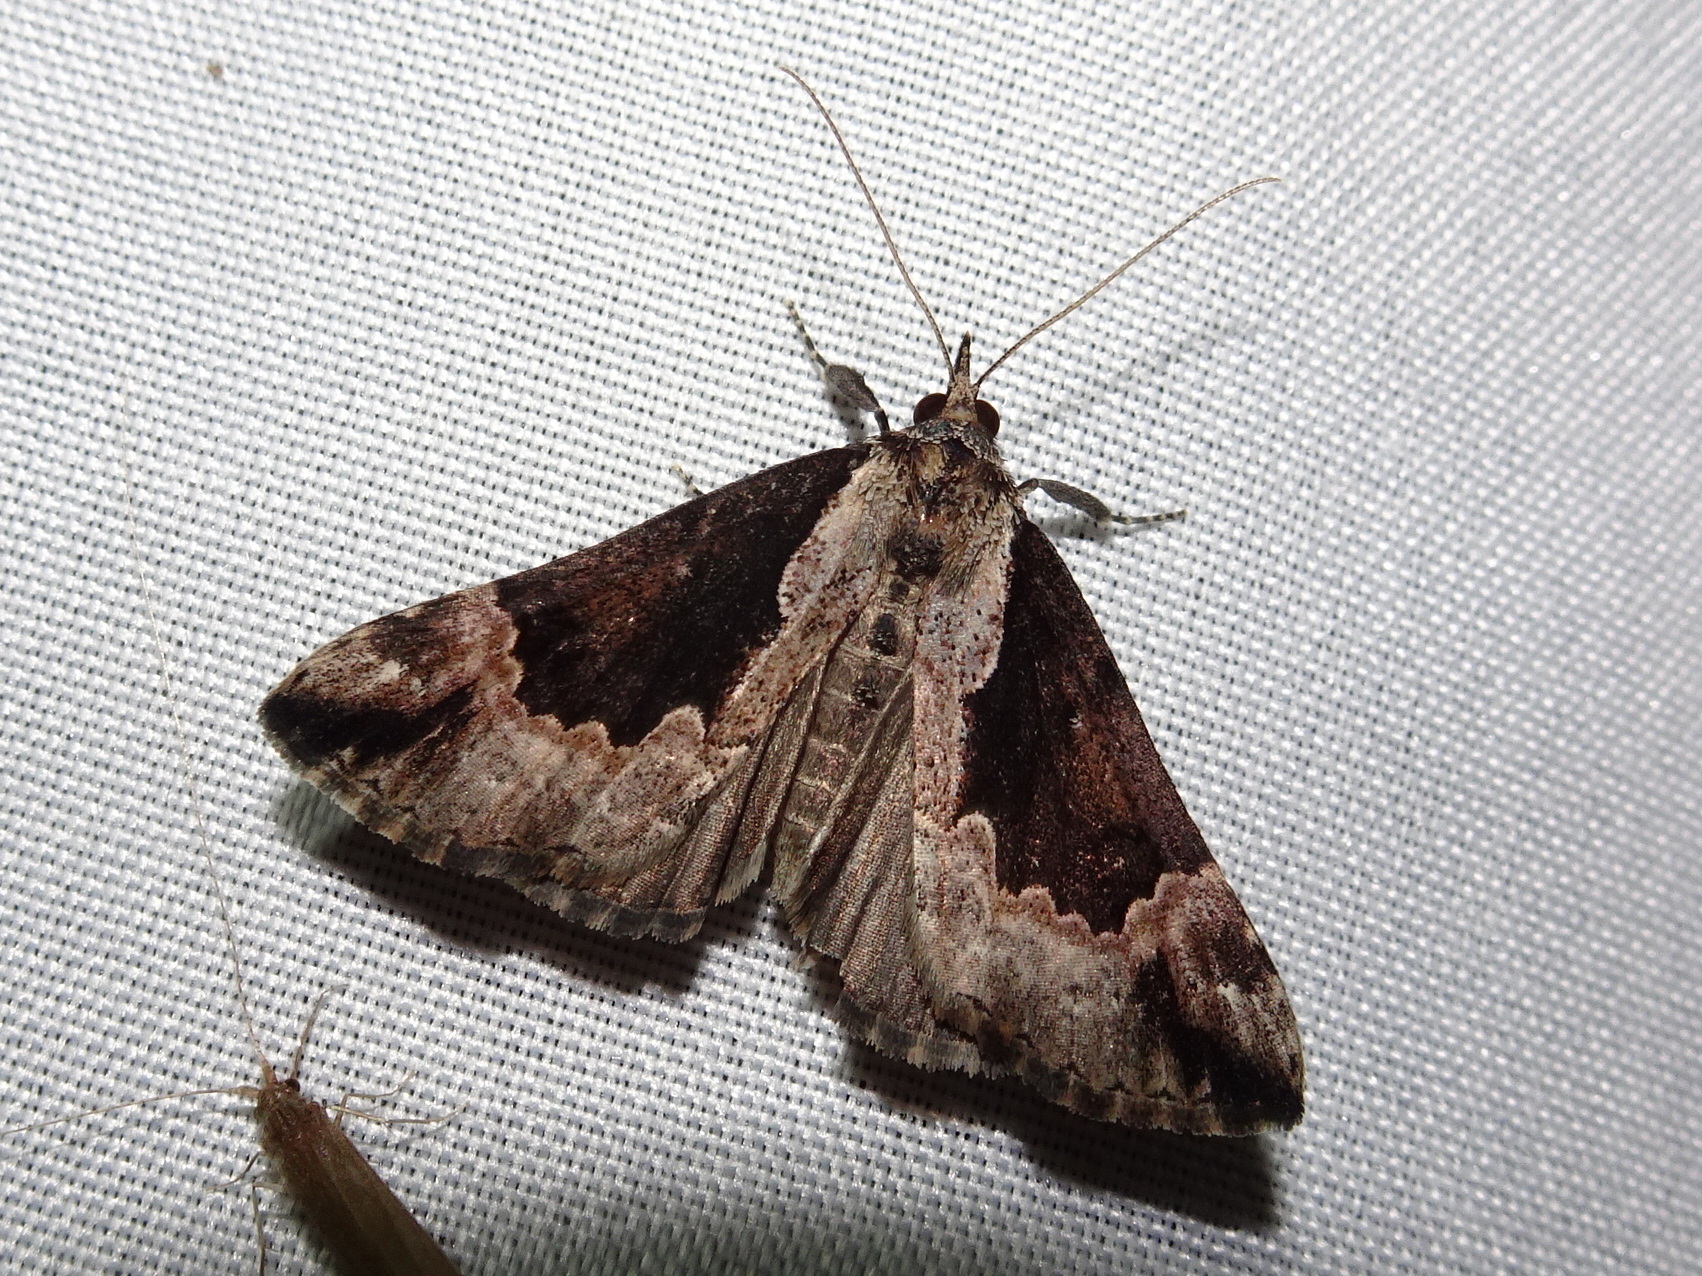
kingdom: Animalia
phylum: Arthropoda
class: Insecta
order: Lepidoptera
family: Erebidae
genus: Hypena
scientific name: Hypena baltimoralis
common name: Baltimore snout
